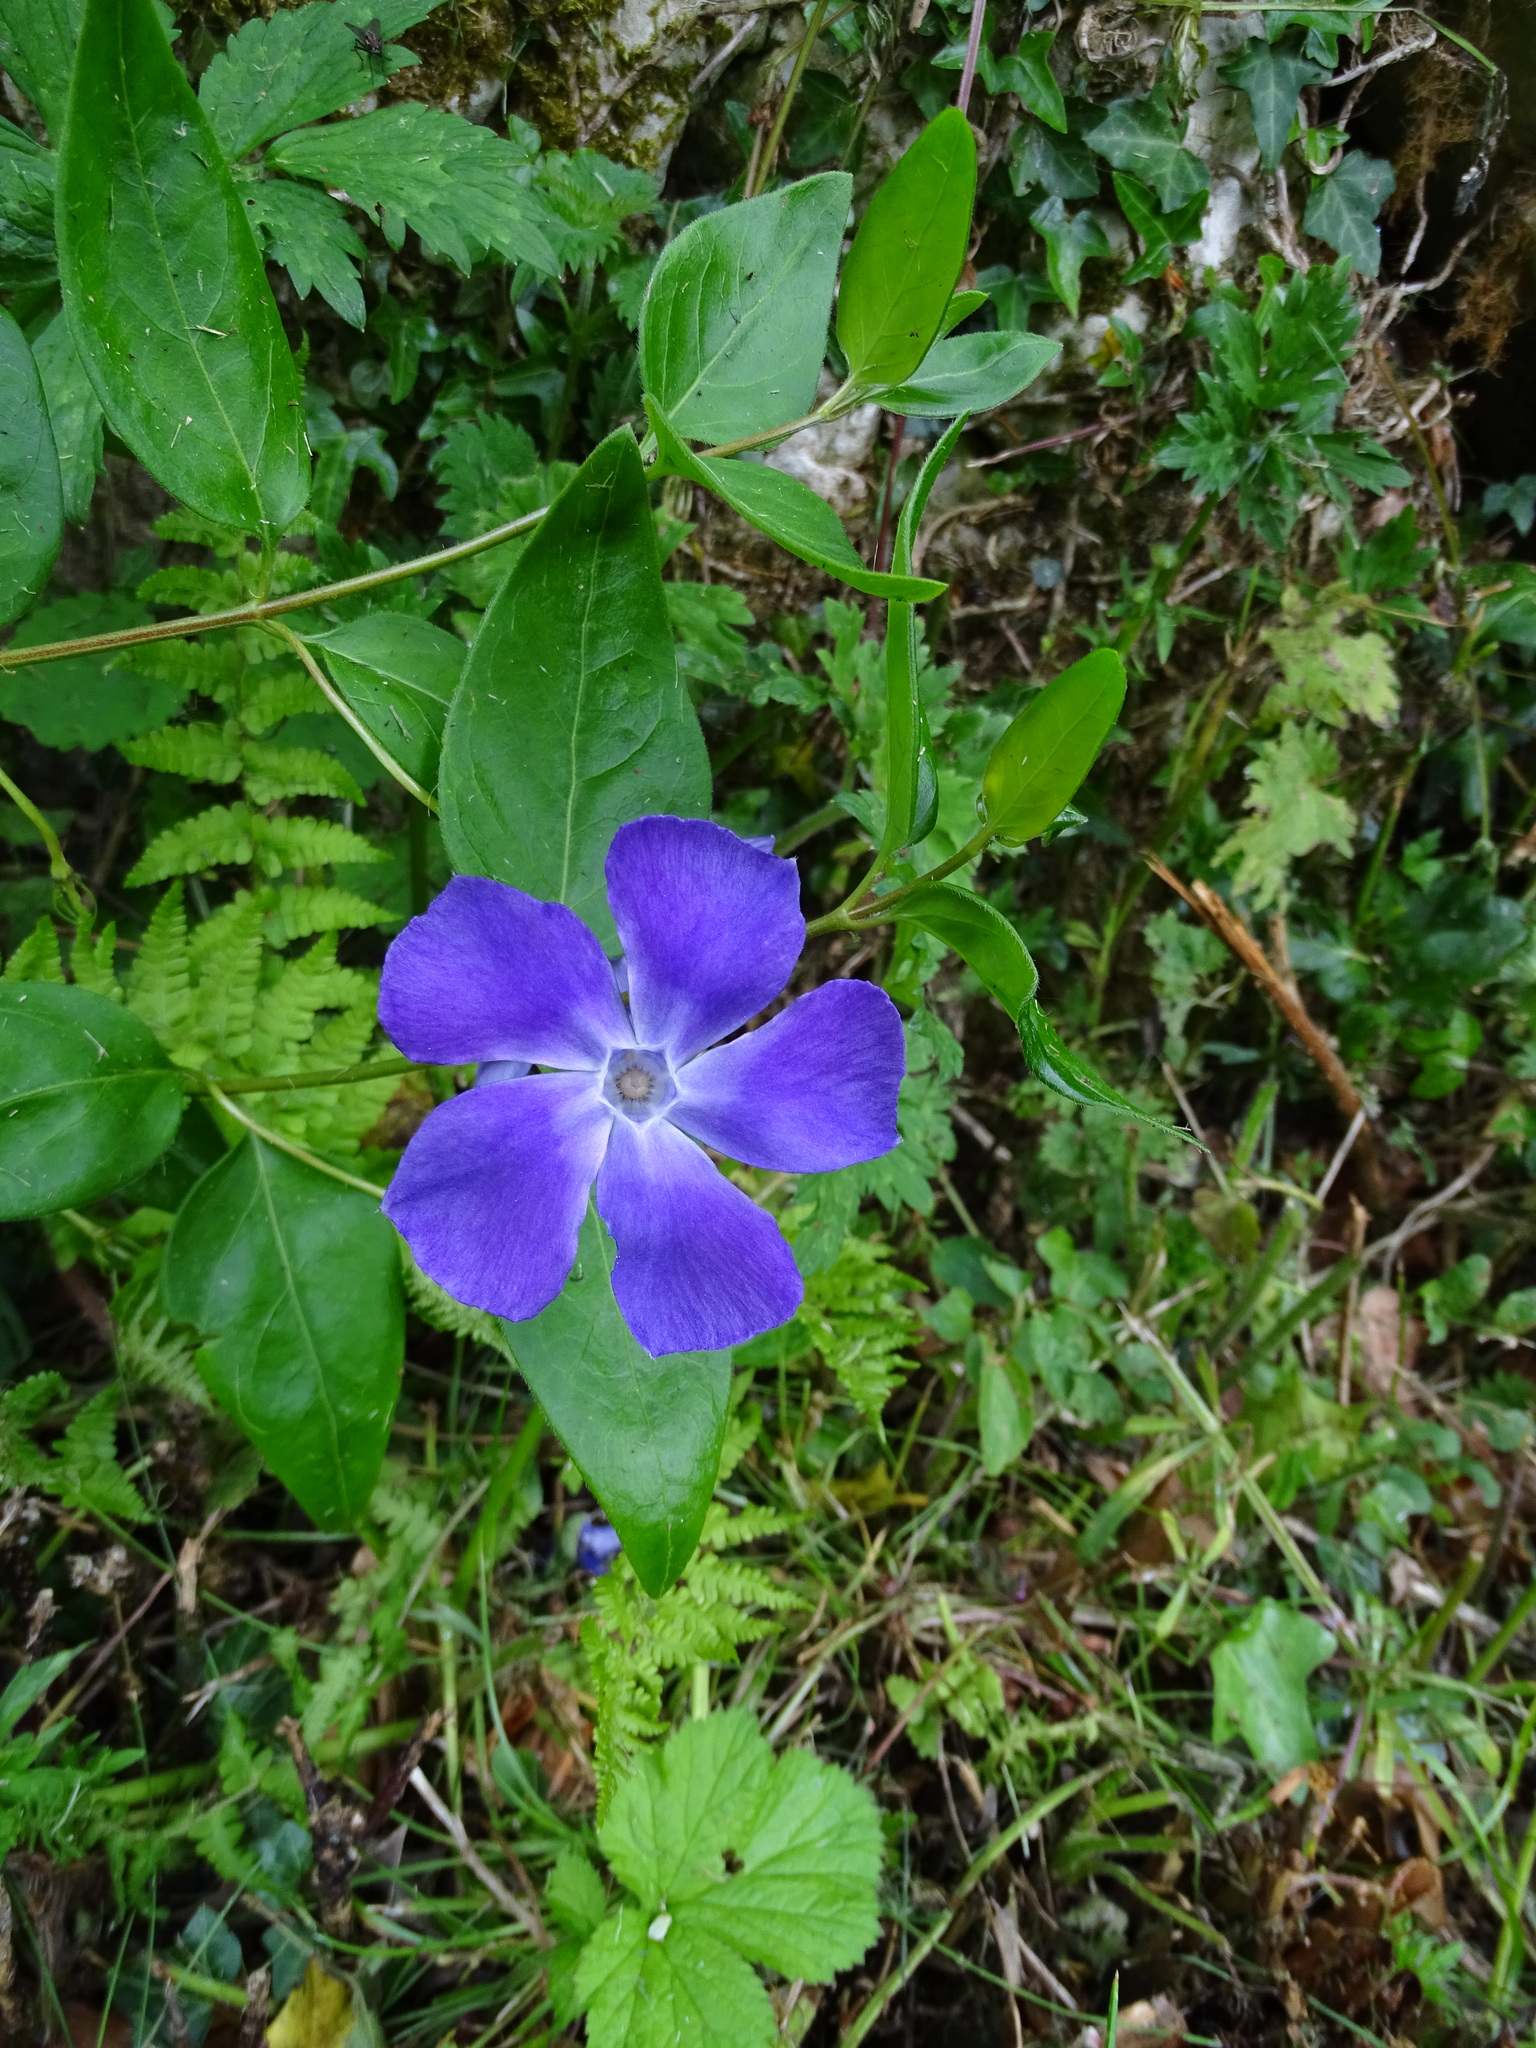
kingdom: Plantae
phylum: Tracheophyta
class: Magnoliopsida
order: Gentianales
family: Apocynaceae
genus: Vinca
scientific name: Vinca major
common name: Greater periwinkle
